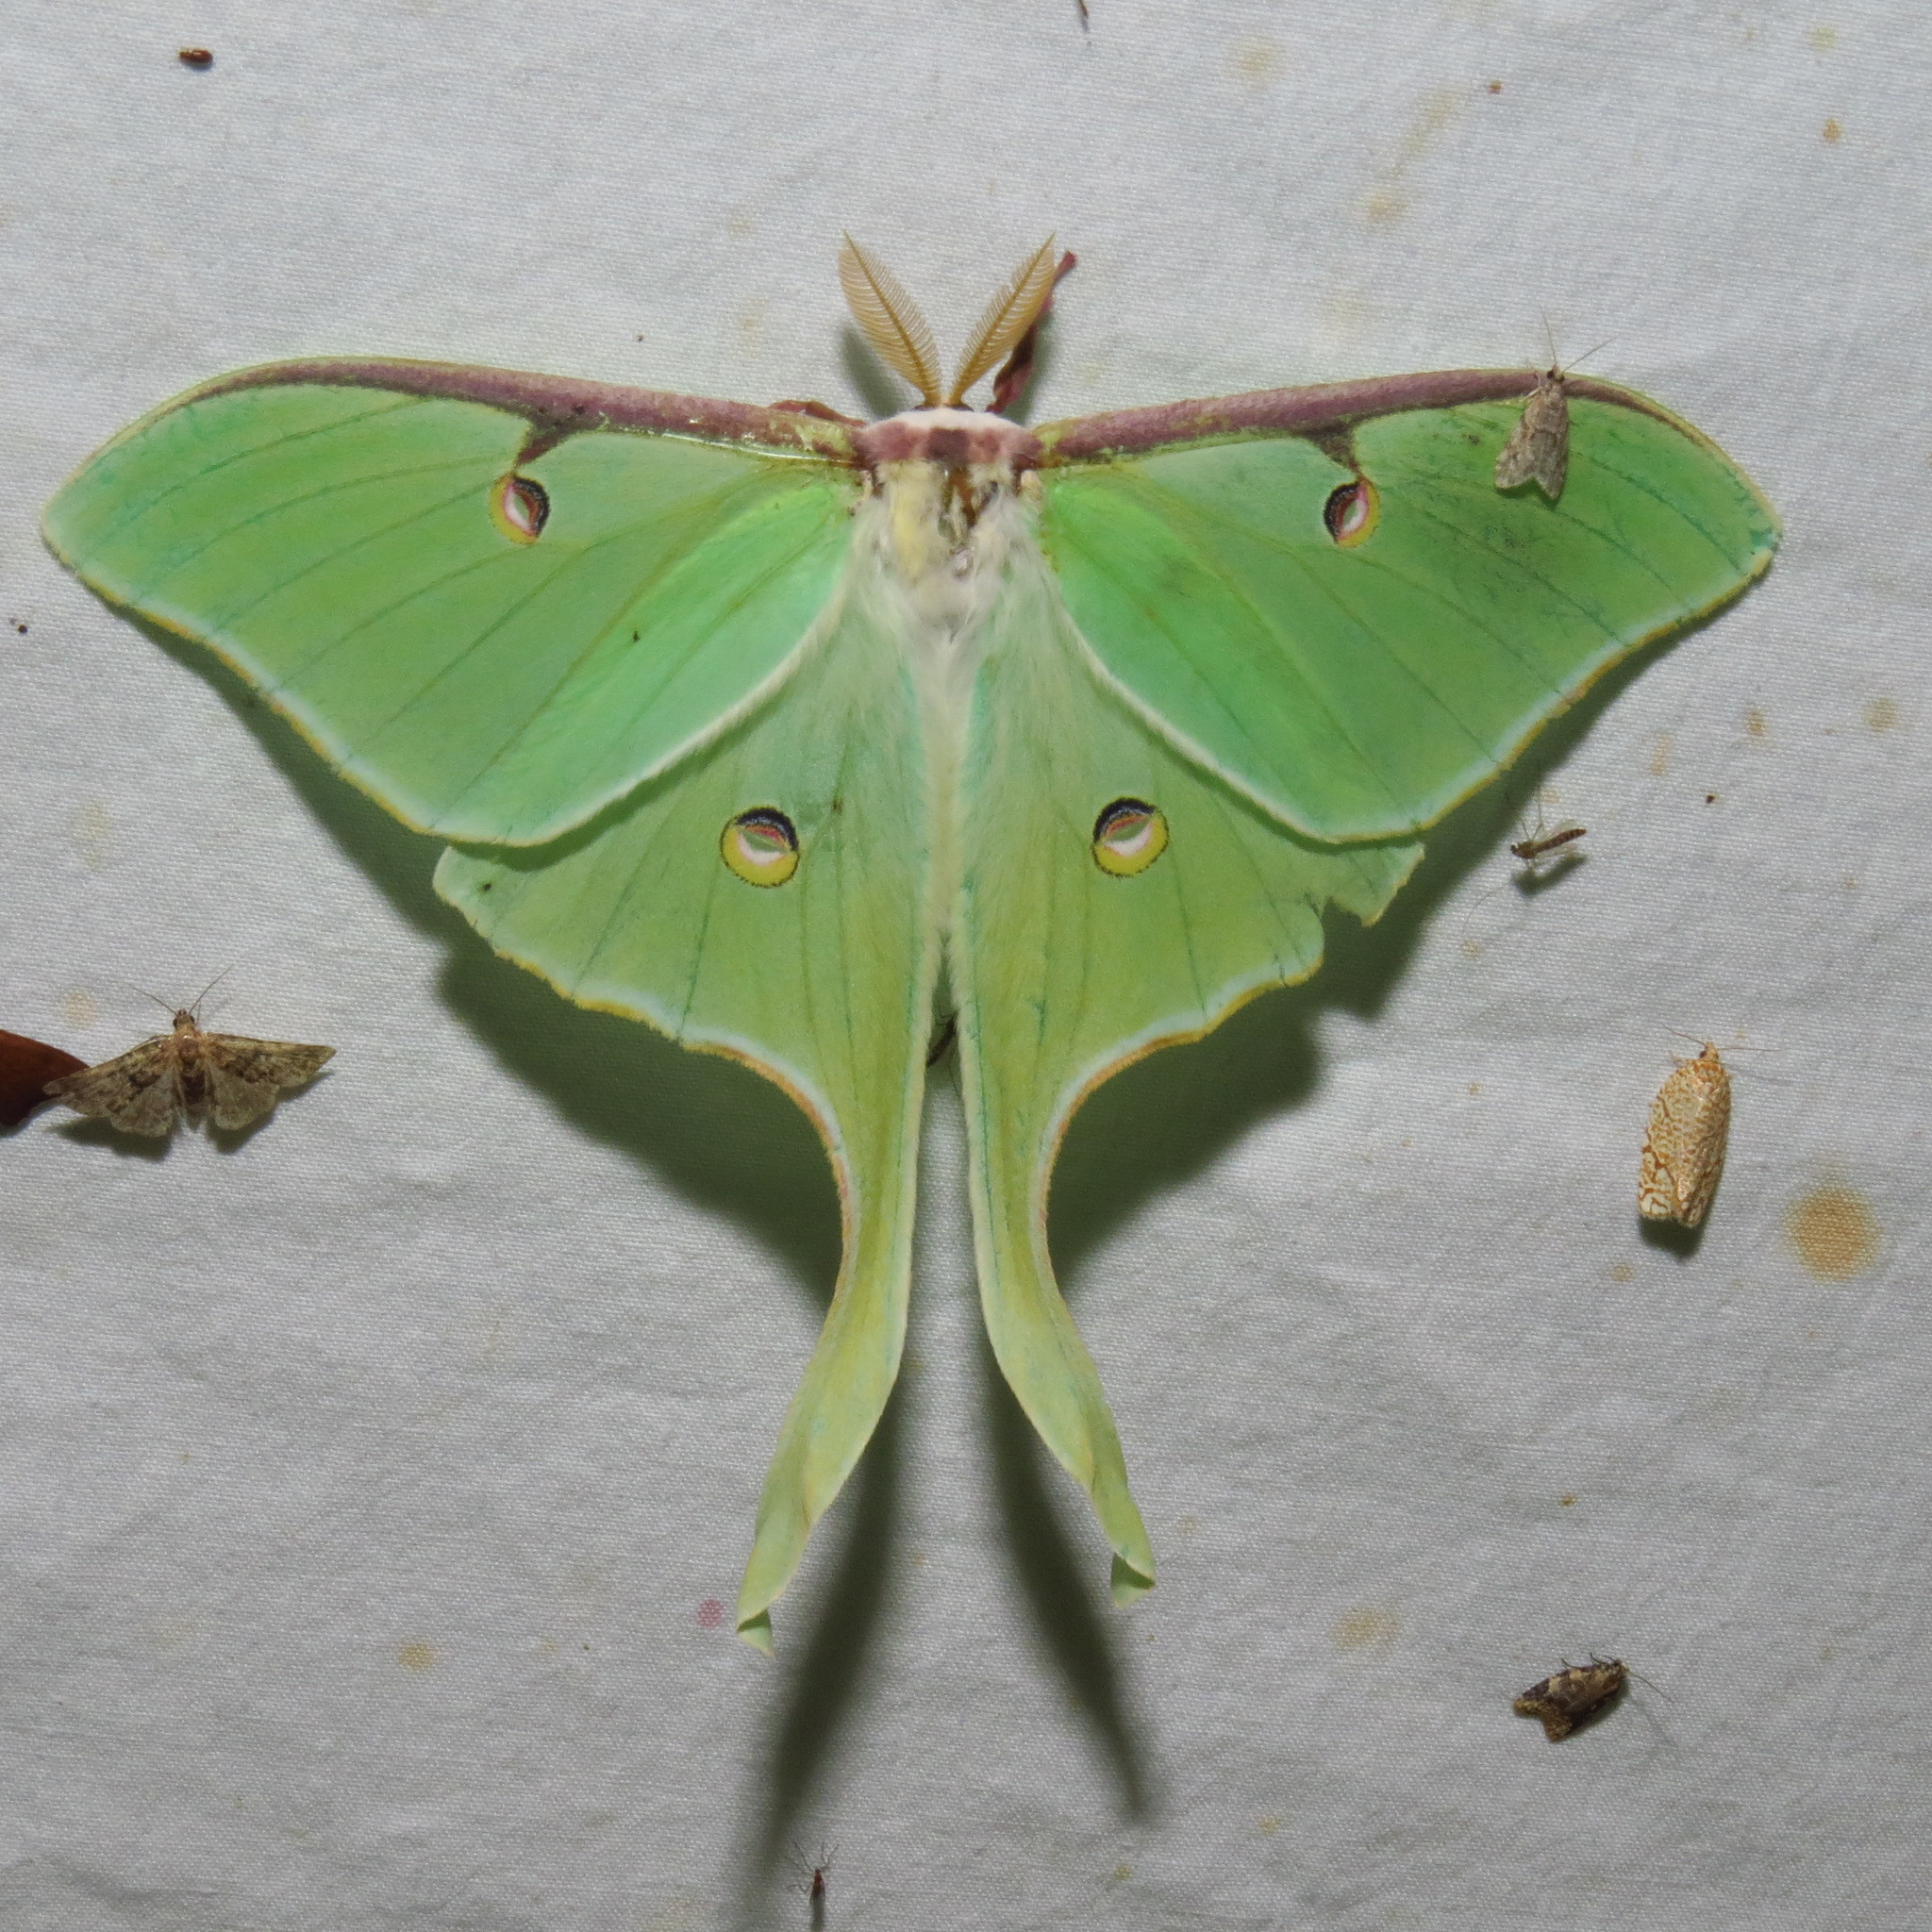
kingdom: Animalia
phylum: Arthropoda
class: Insecta
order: Lepidoptera
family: Saturniidae
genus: Actias
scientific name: Actias luna
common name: Luna moth
